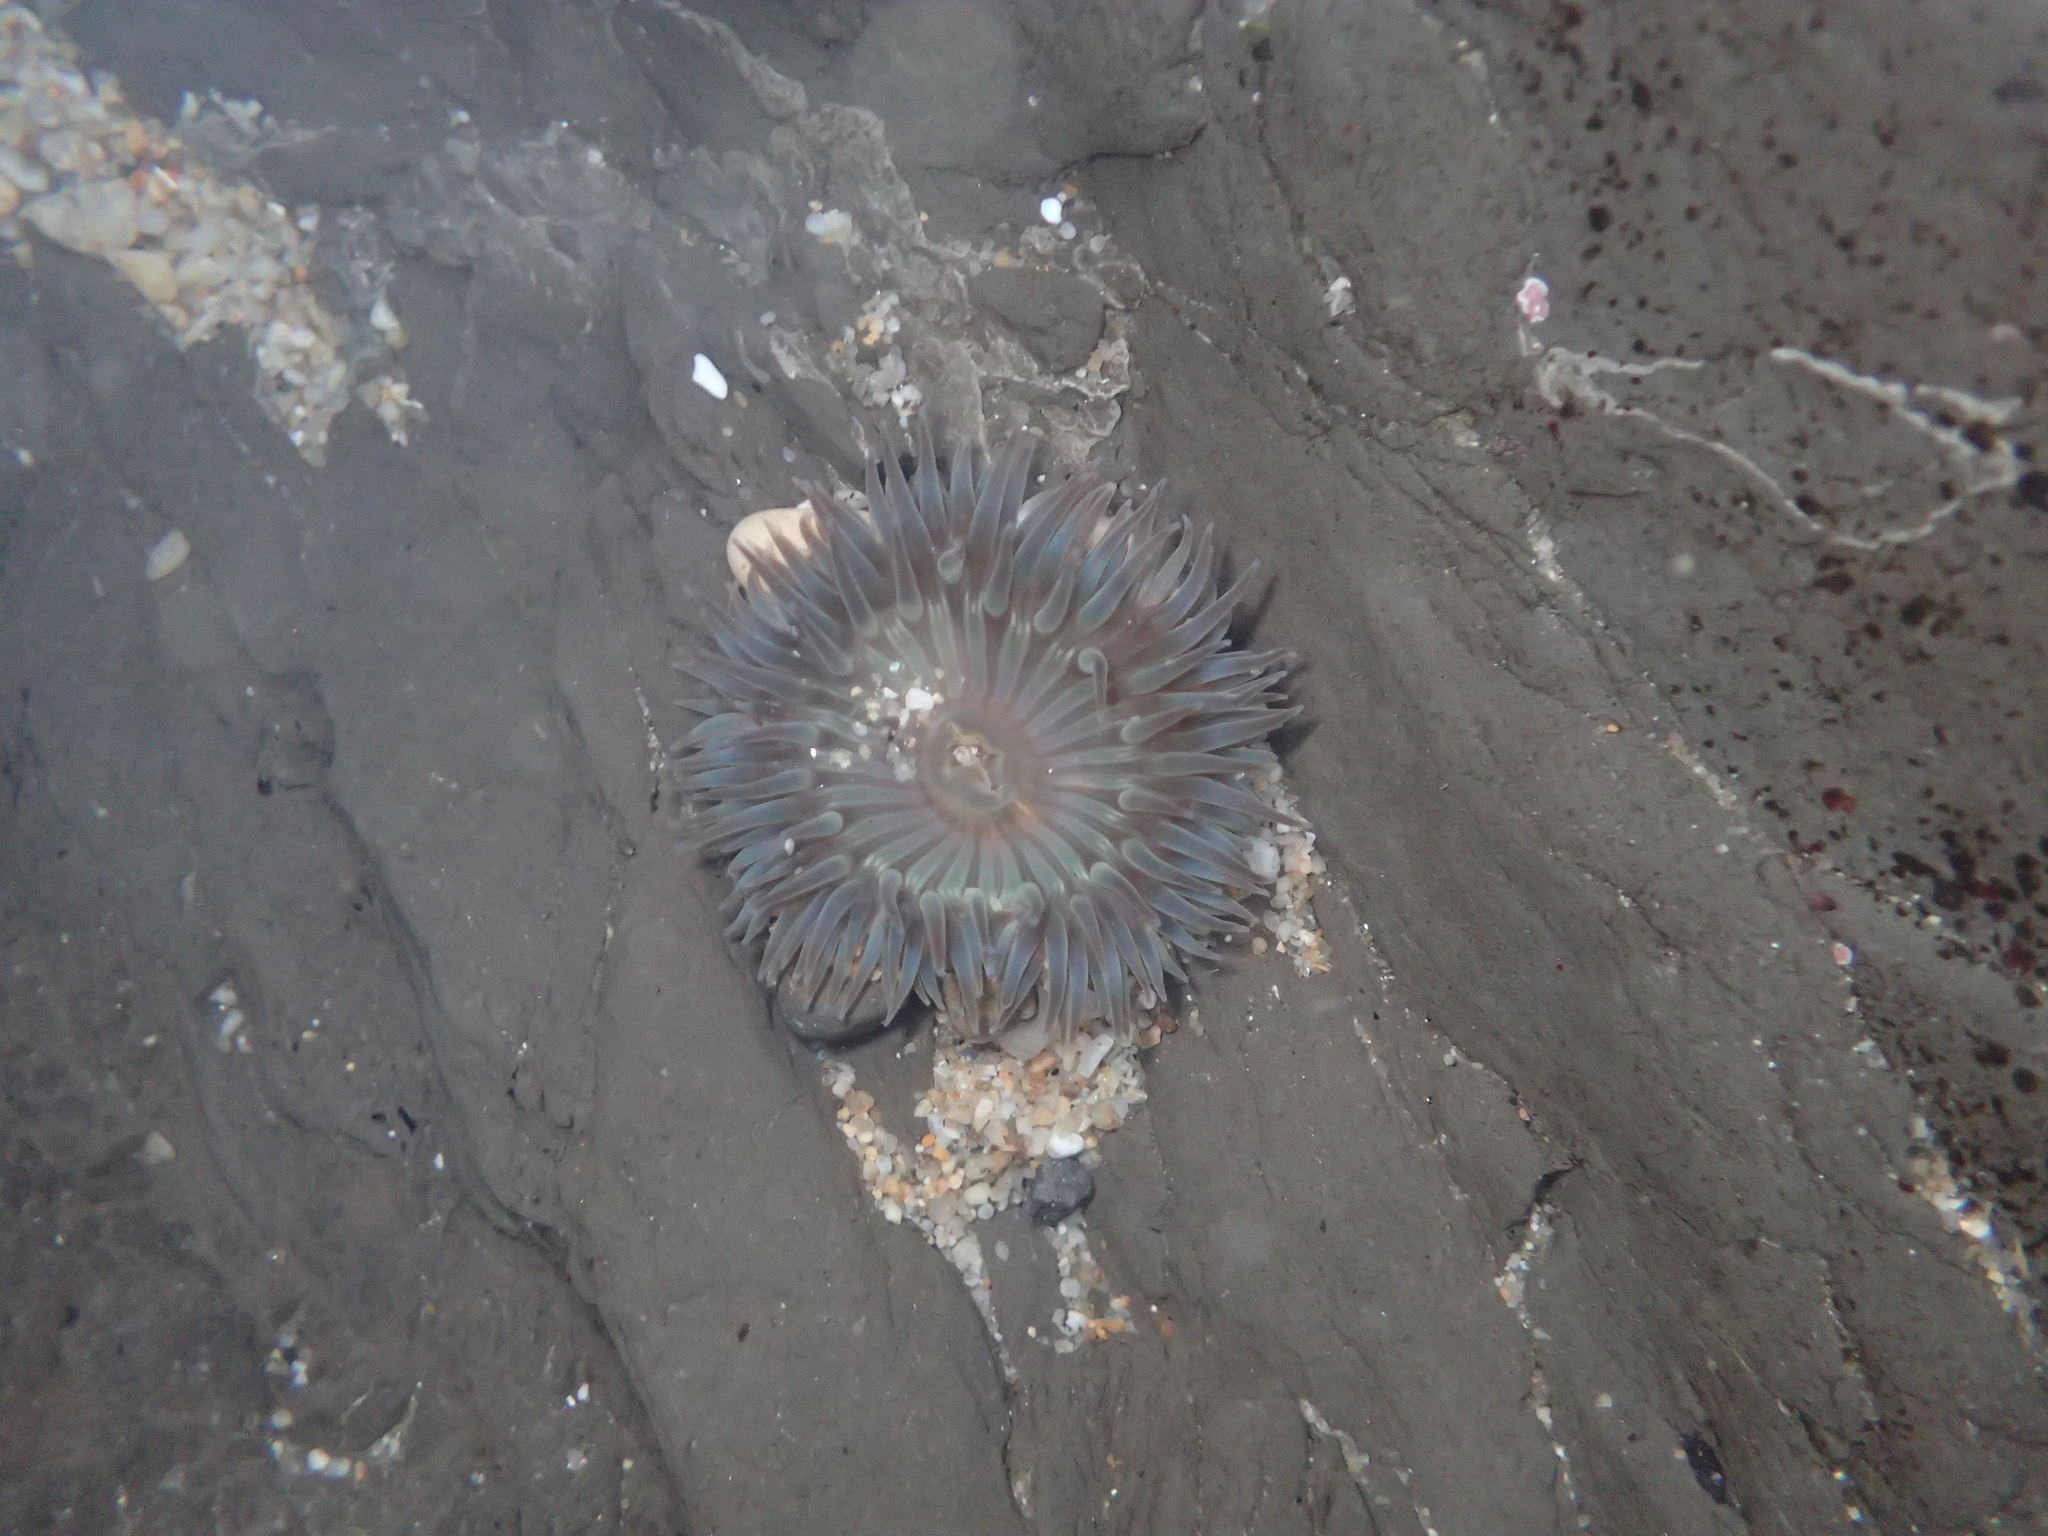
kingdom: Animalia
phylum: Cnidaria
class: Anthozoa
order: Actiniaria
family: Actiniidae
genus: Anthopleura
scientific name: Anthopleura sola
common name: Sun anemone
